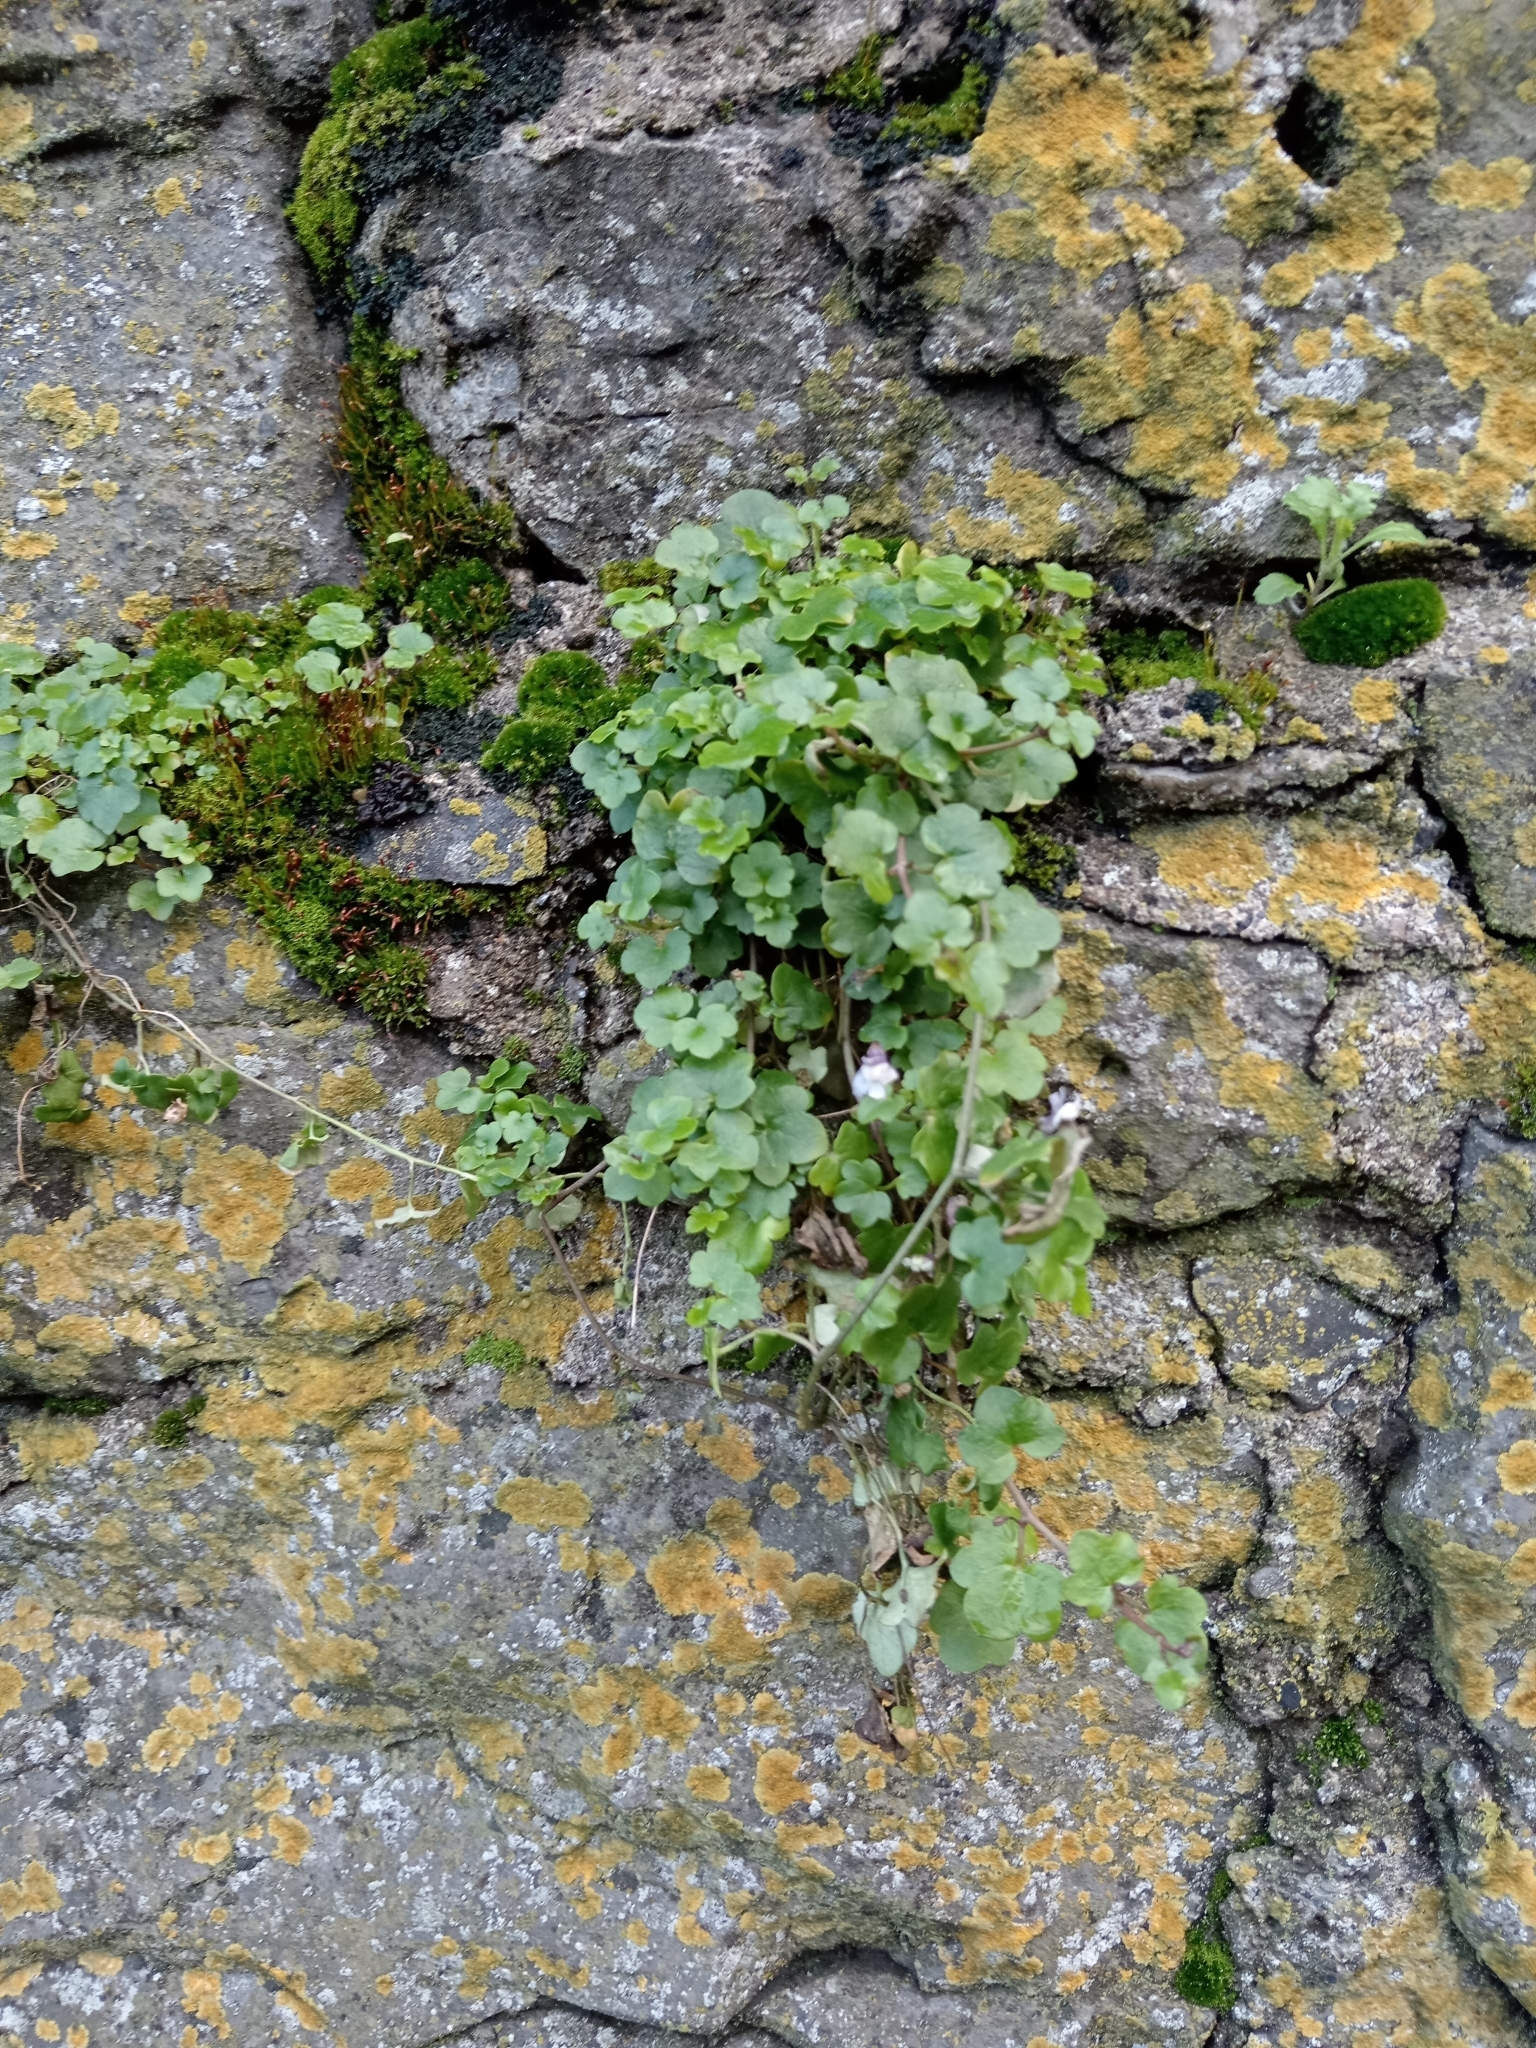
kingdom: Plantae
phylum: Tracheophyta
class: Magnoliopsida
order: Lamiales
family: Plantaginaceae
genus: Cymbalaria
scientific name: Cymbalaria muralis
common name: Ivy-leaved toadflax
